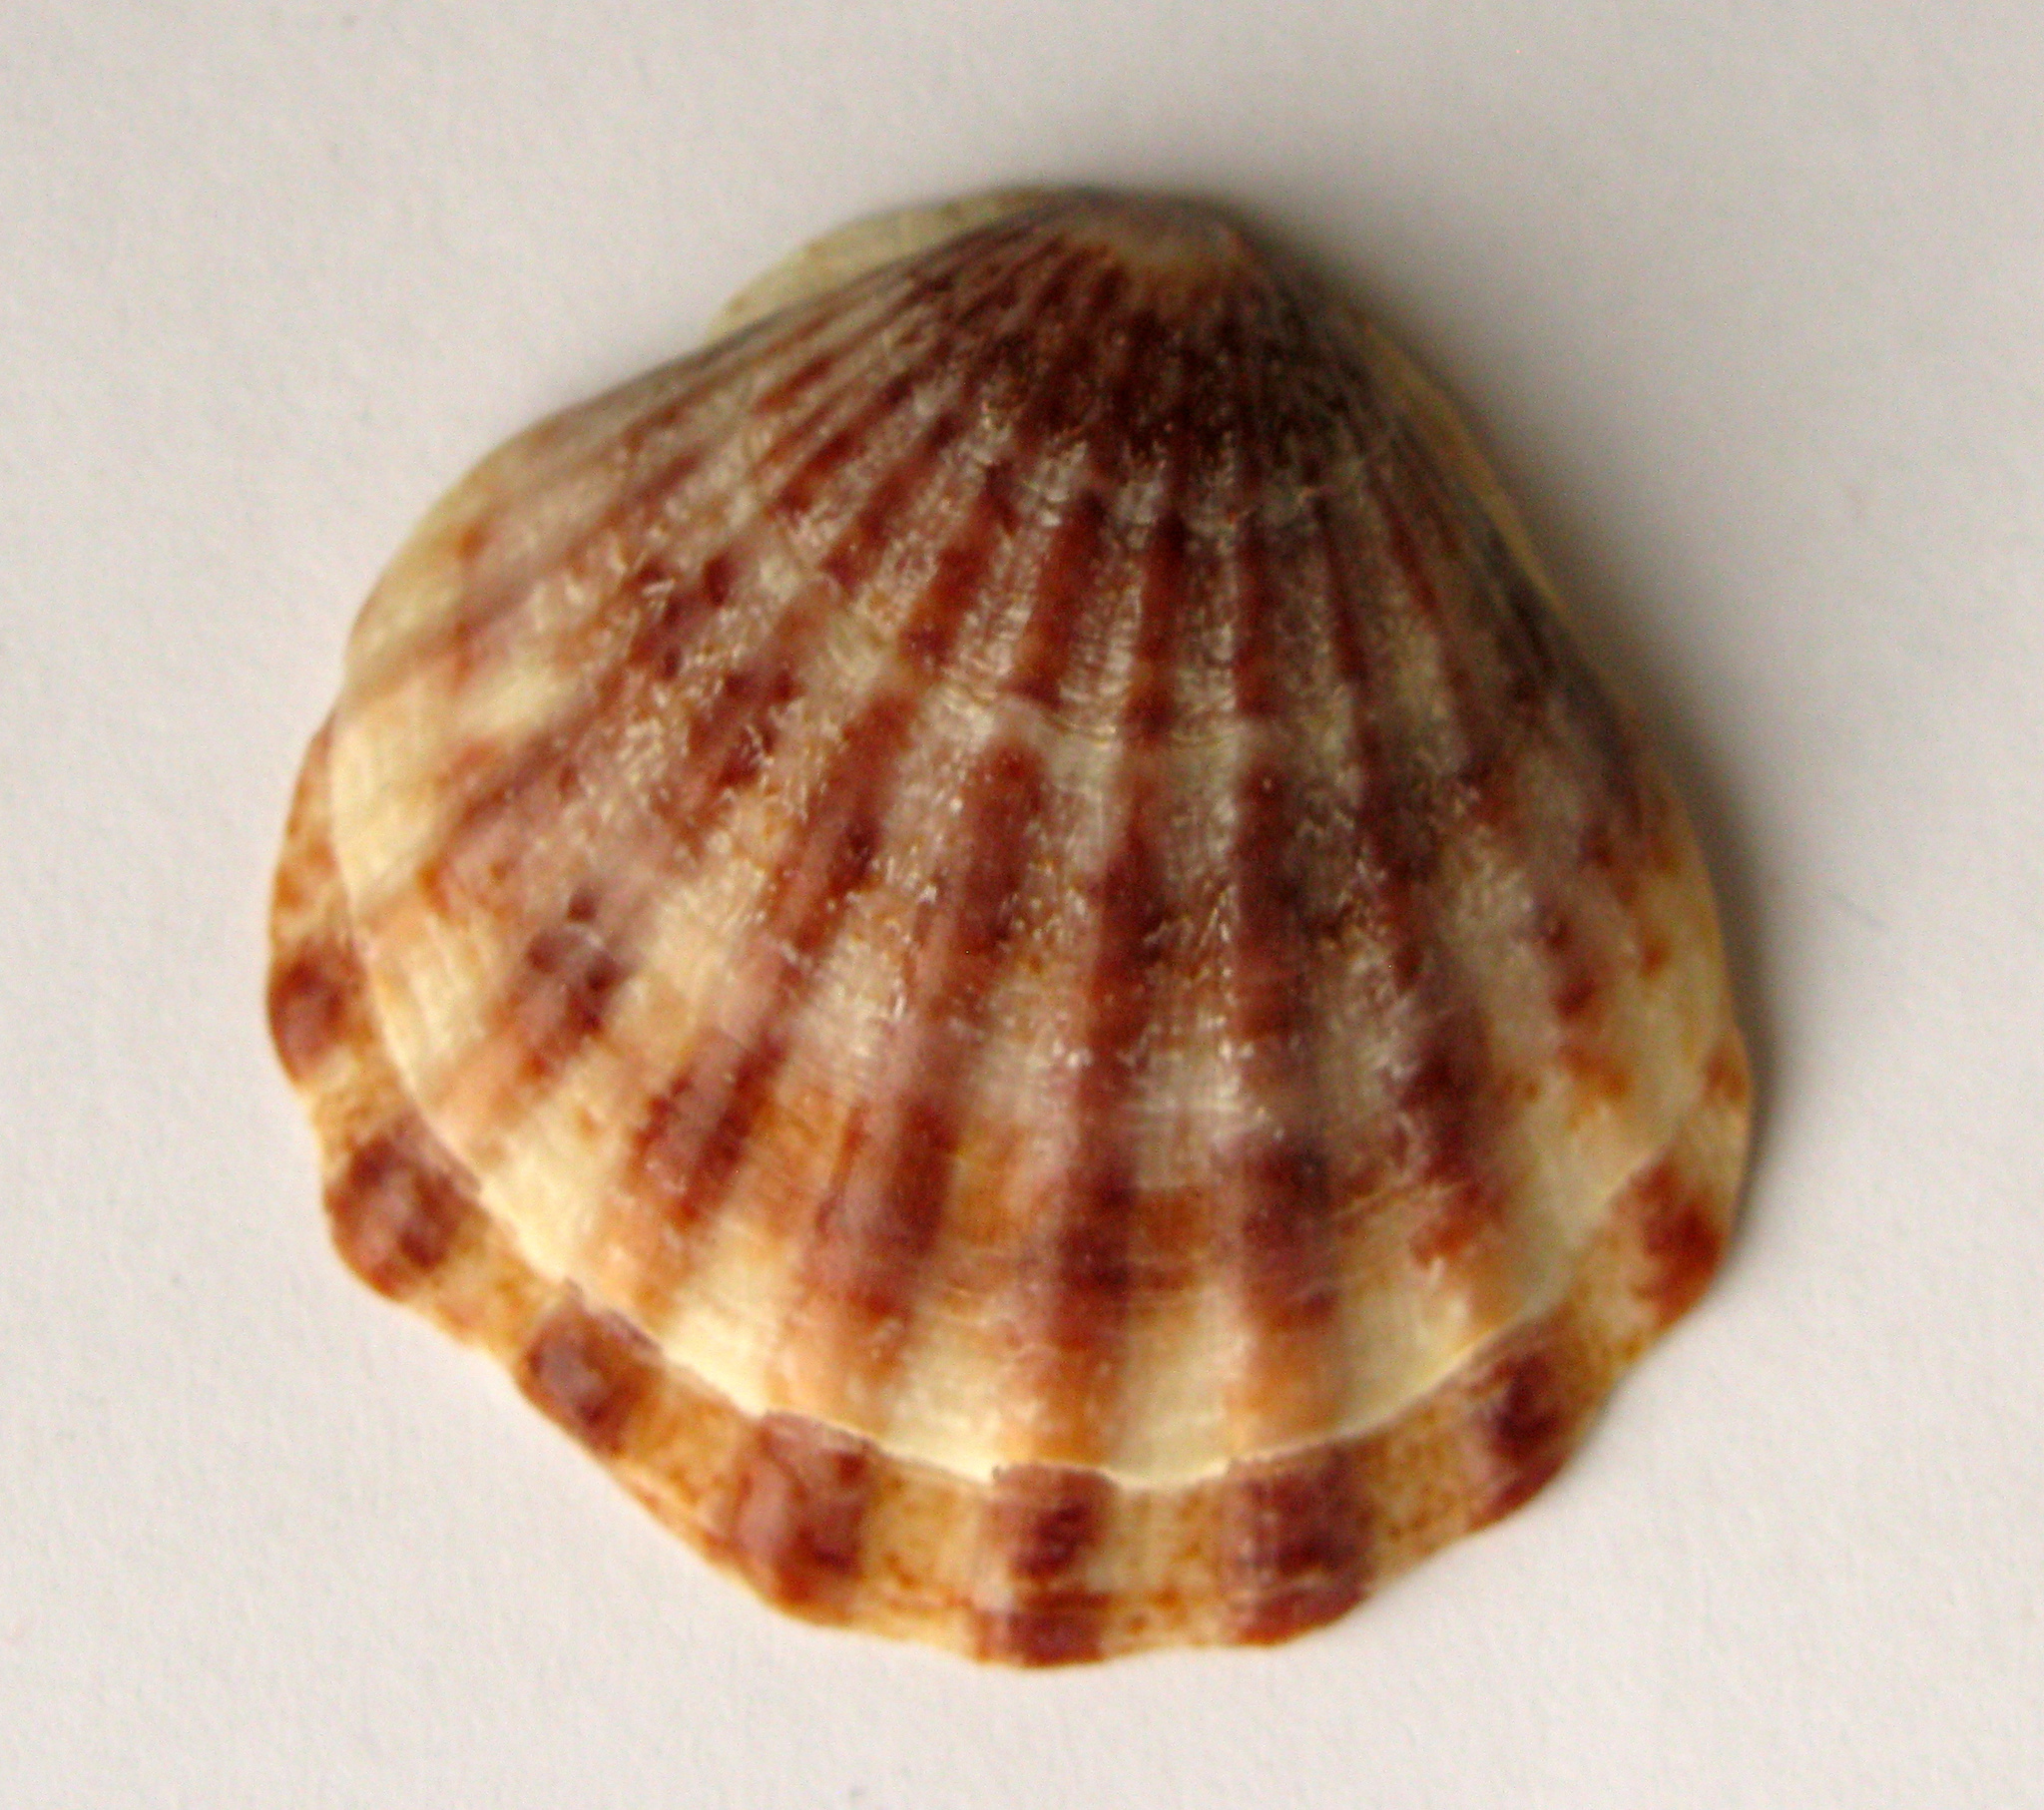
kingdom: Animalia
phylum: Mollusca
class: Bivalvia
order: Pectinida
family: Pectinidae
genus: Flexopecten
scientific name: Flexopecten glaber
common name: Smooth scallop
